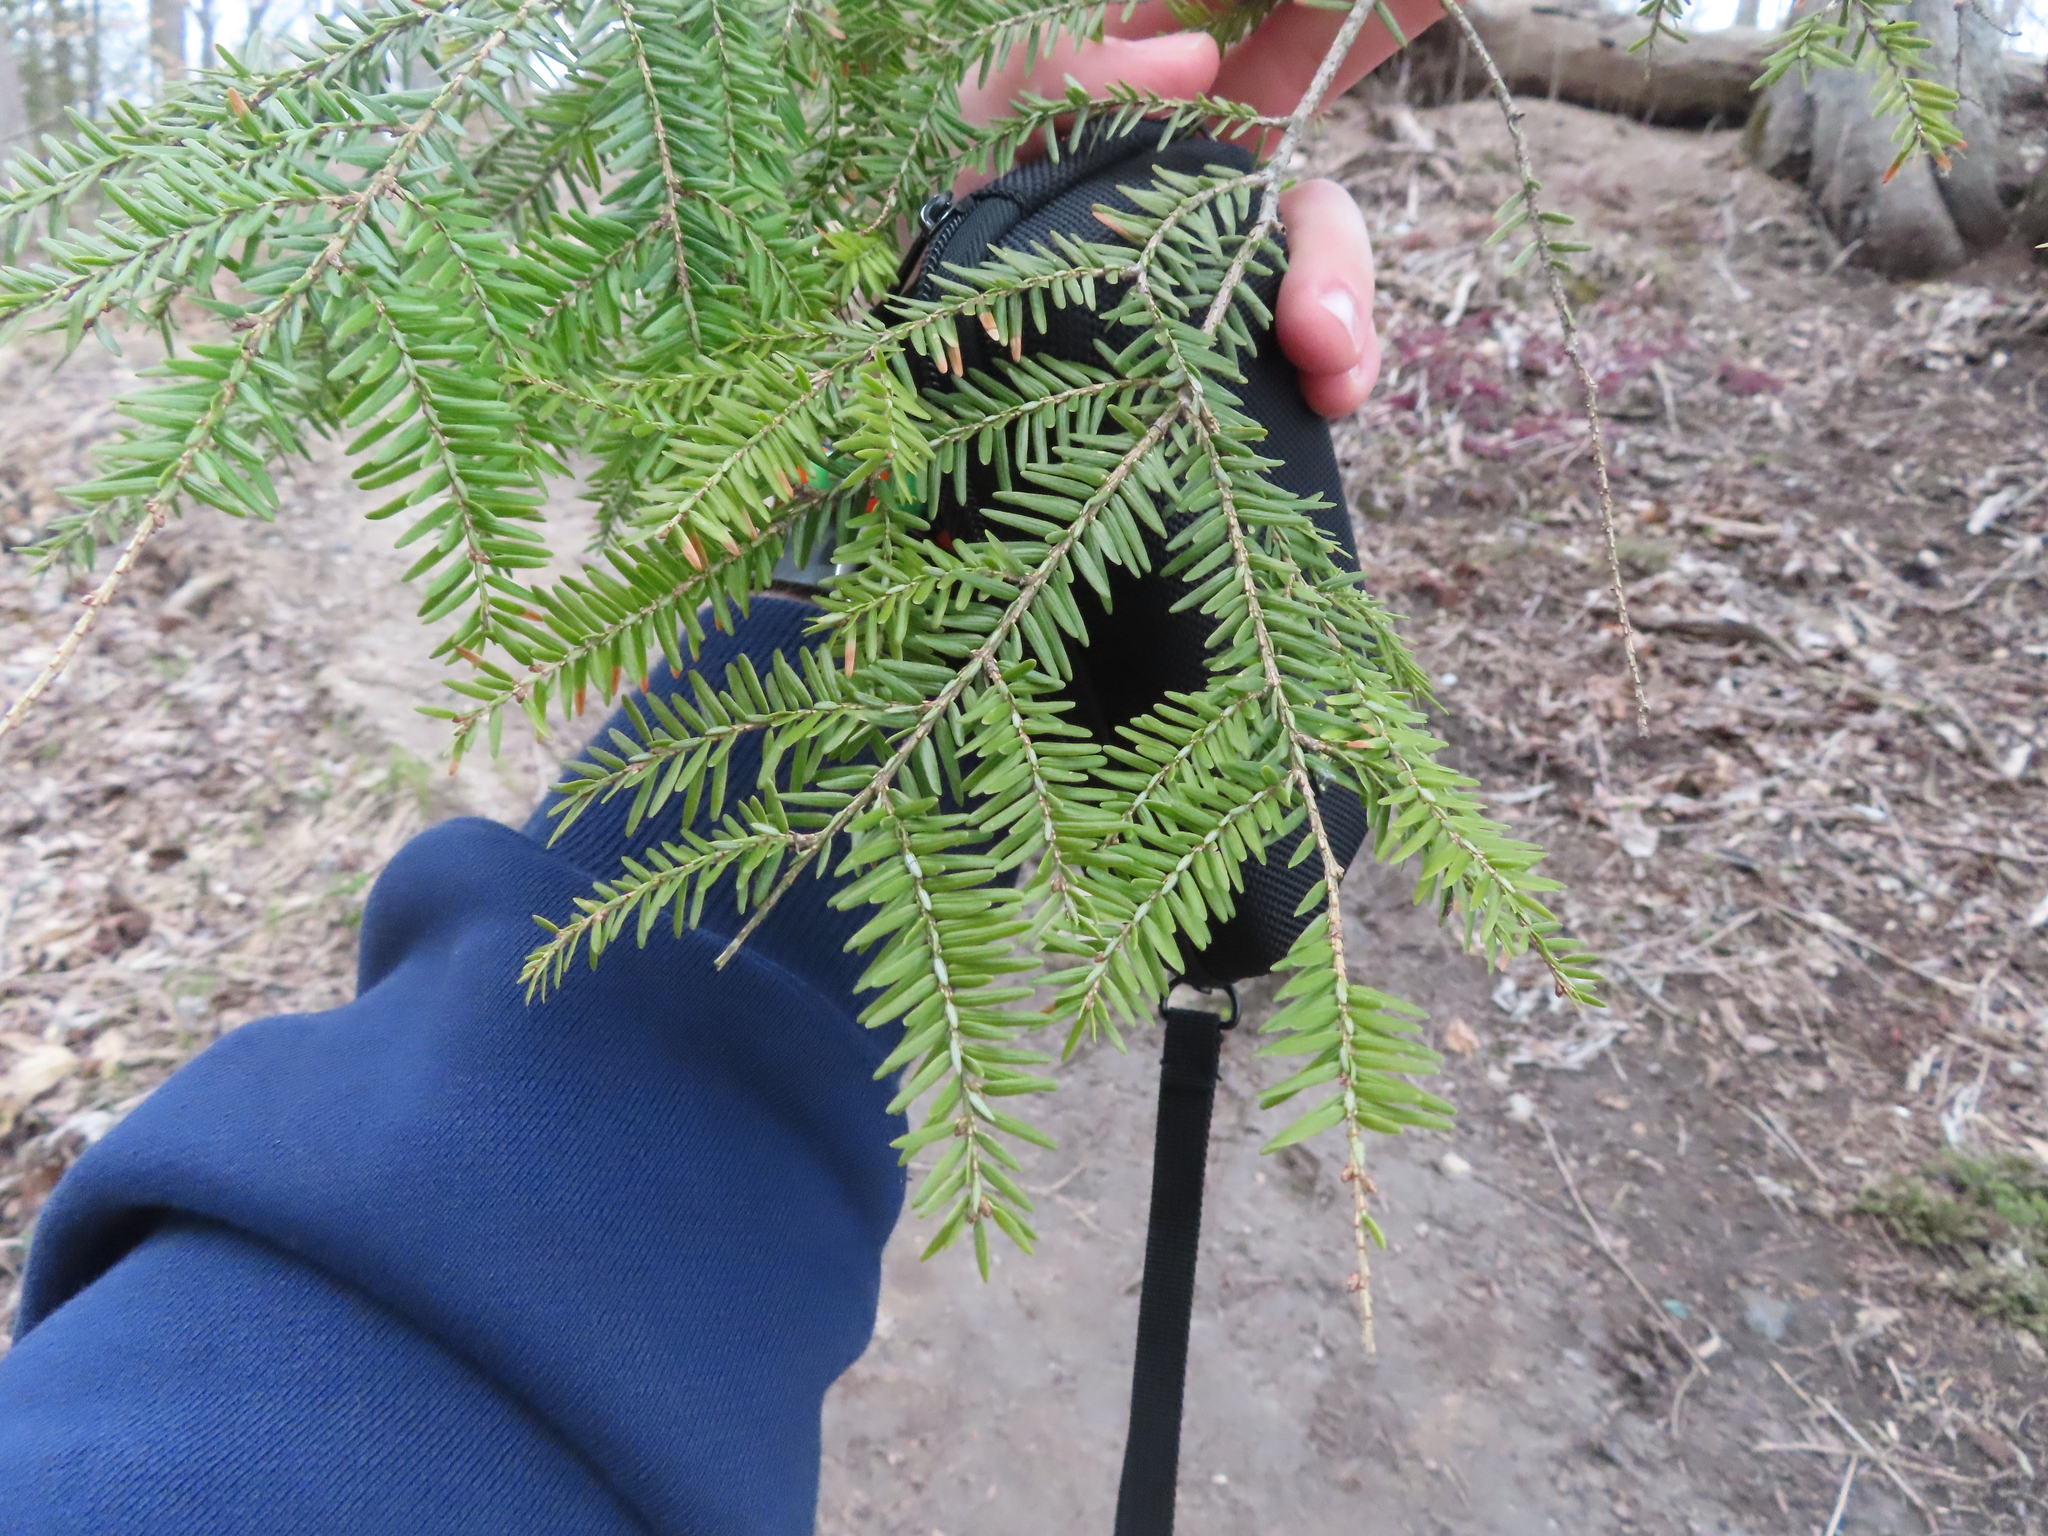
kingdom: Plantae
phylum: Tracheophyta
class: Pinopsida
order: Pinales
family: Pinaceae
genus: Tsuga
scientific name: Tsuga canadensis
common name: Eastern hemlock
